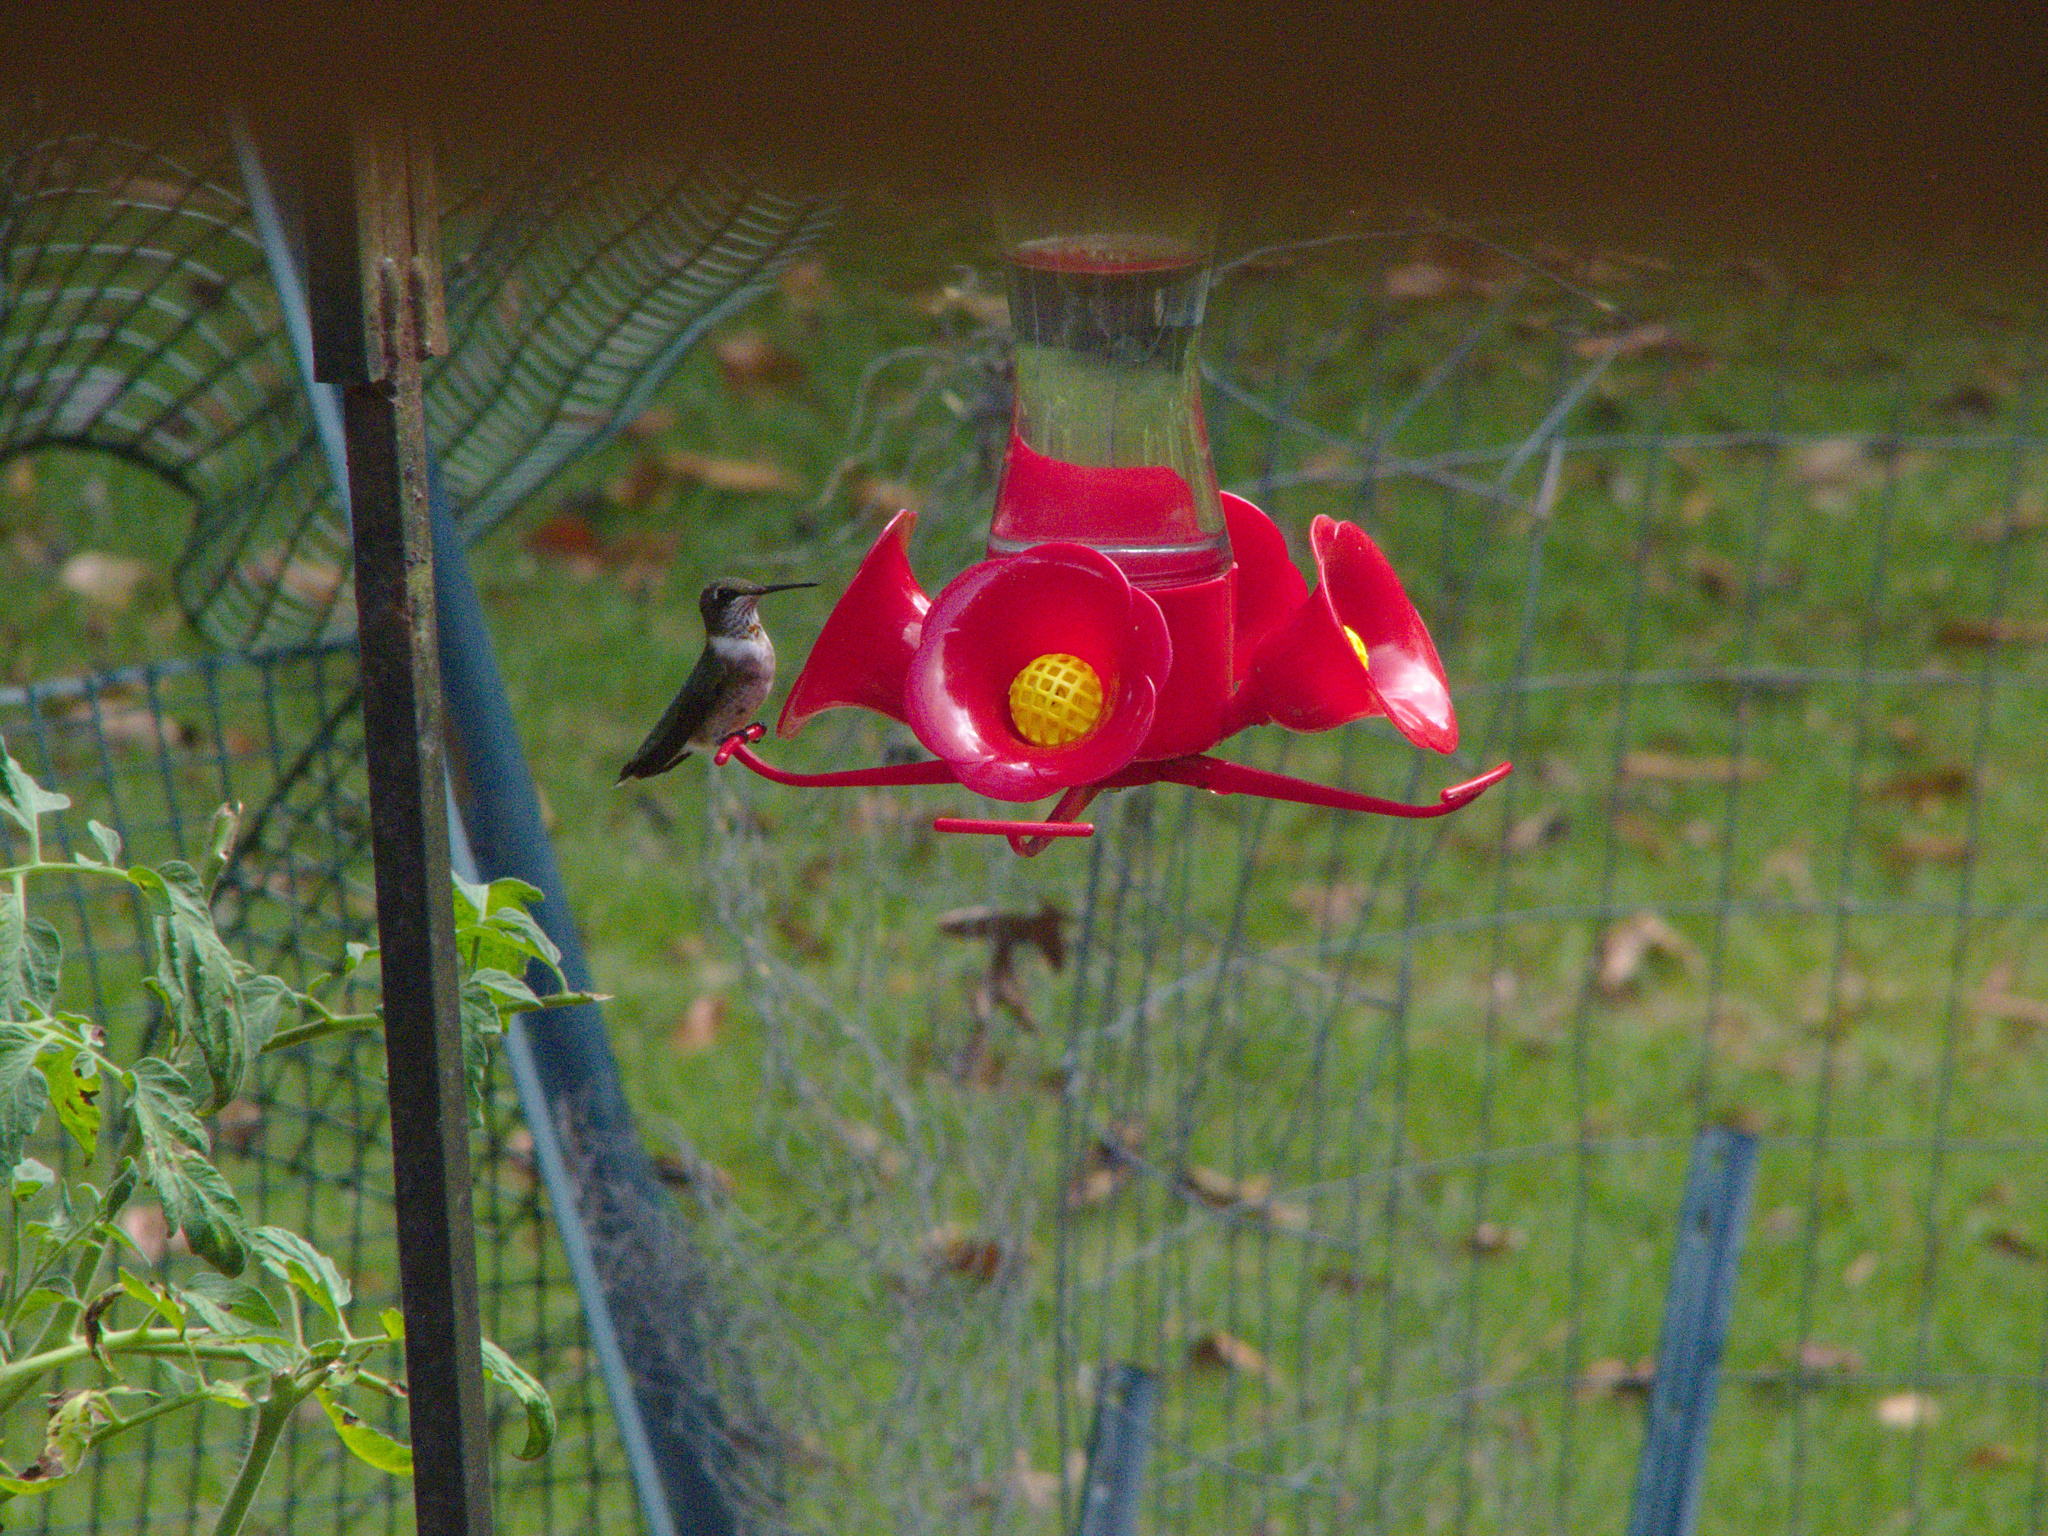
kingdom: Animalia
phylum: Chordata
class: Aves
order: Apodiformes
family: Trochilidae
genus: Archilochus
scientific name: Archilochus colubris
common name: Ruby-throated hummingbird
